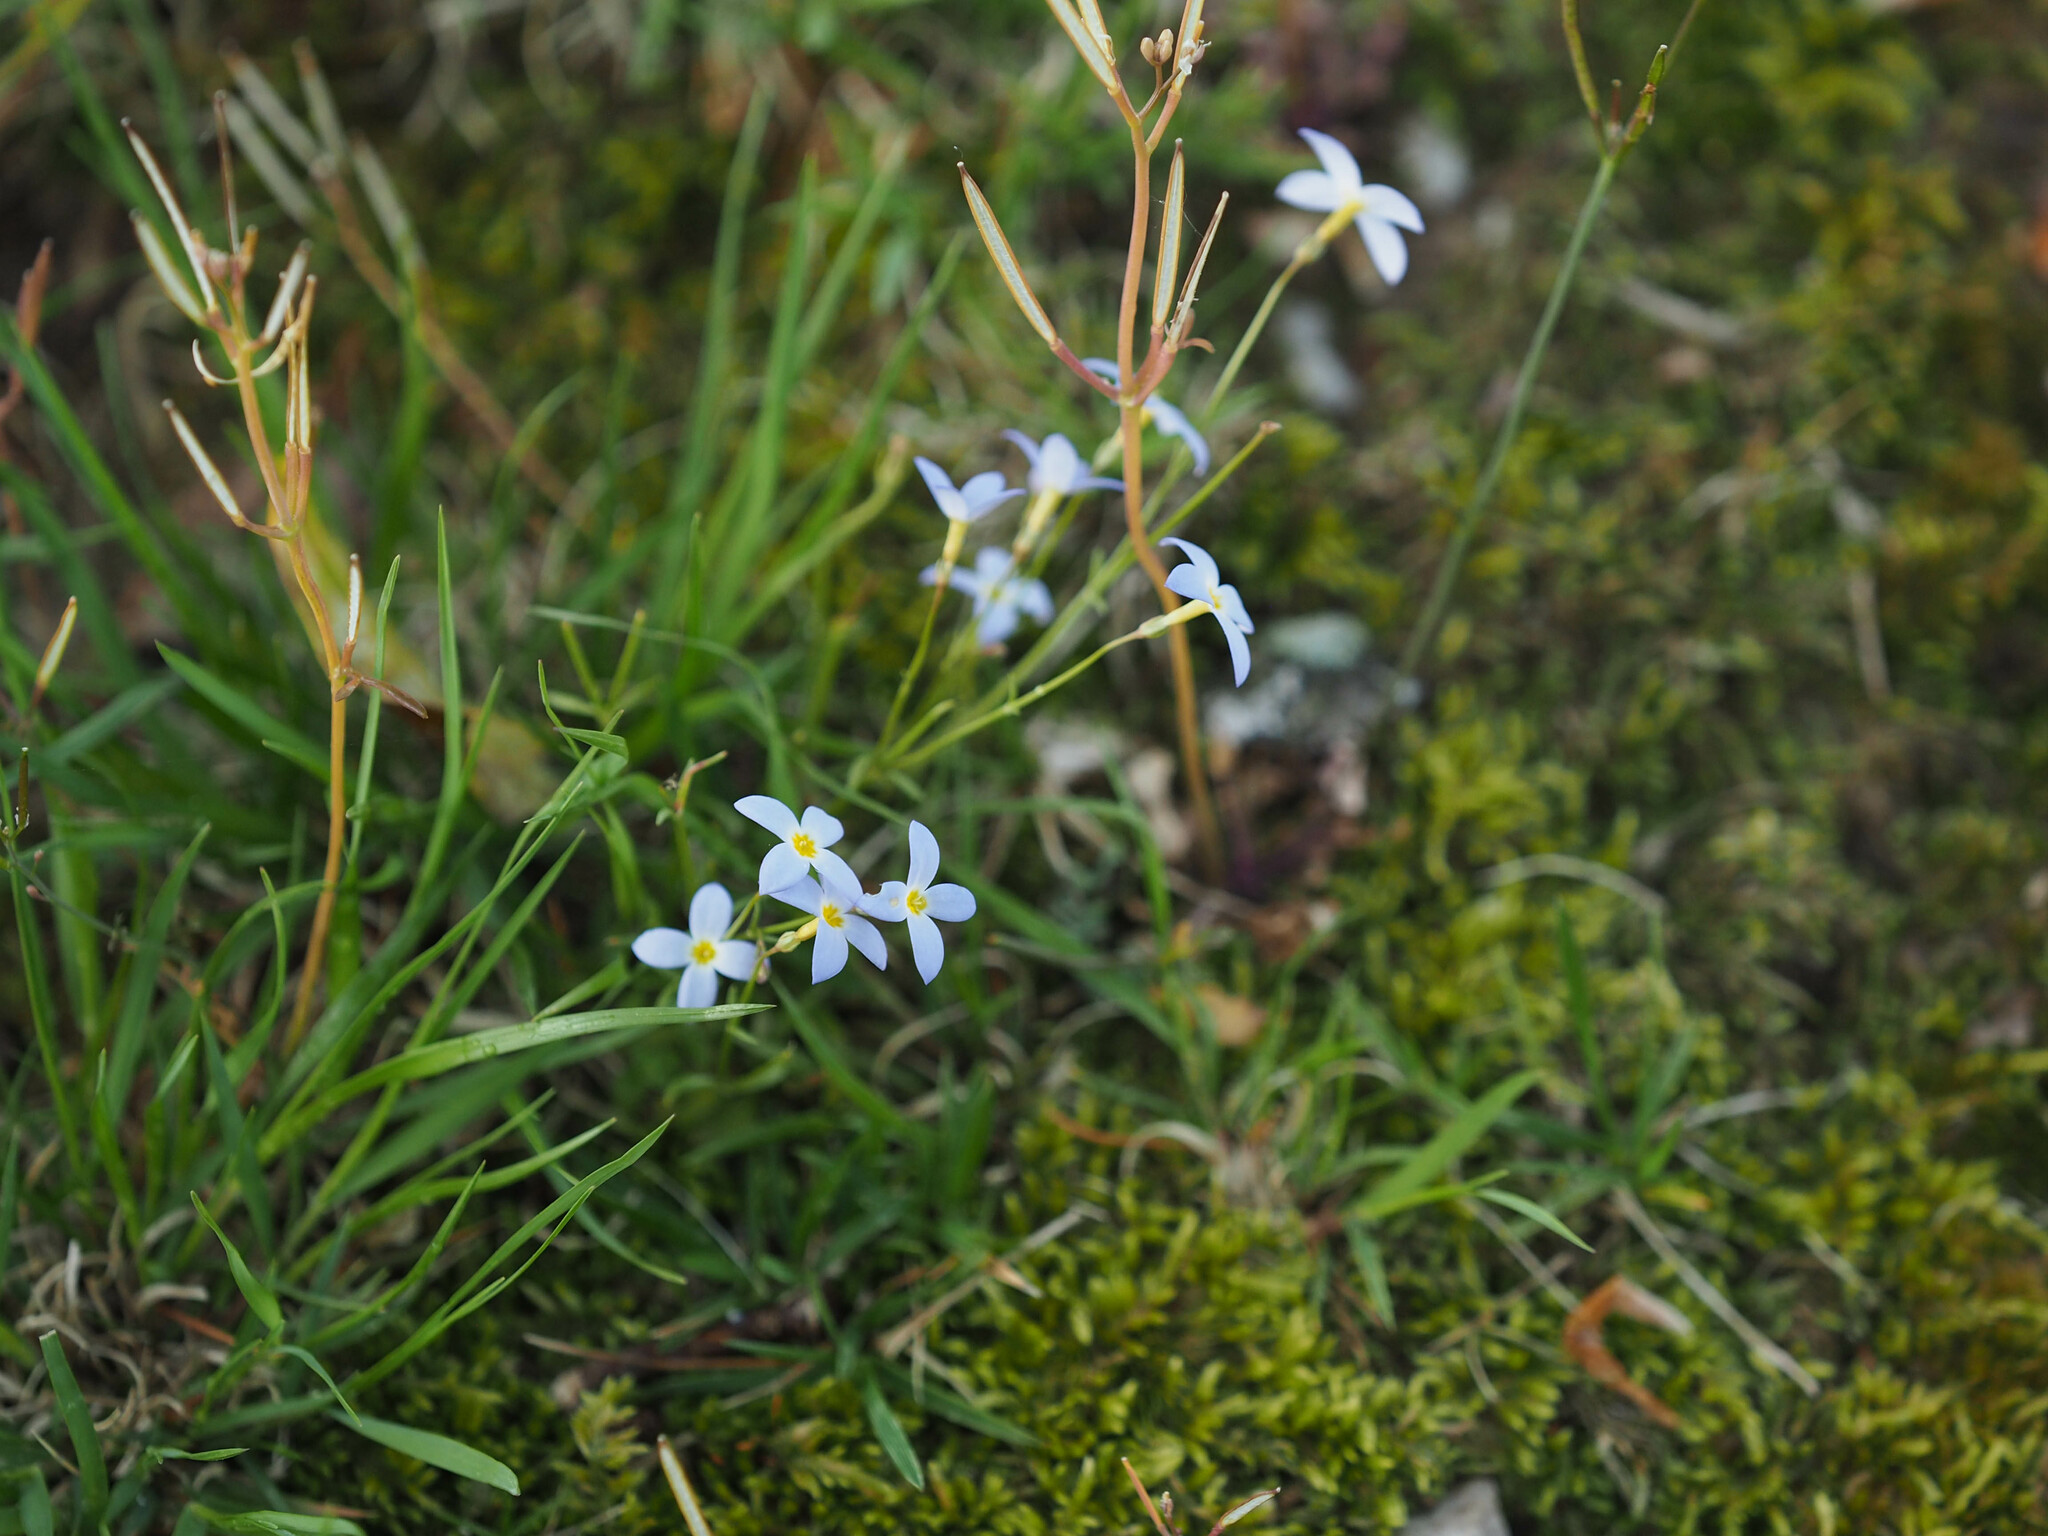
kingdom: Plantae
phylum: Tracheophyta
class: Magnoliopsida
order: Gentianales
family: Rubiaceae
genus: Houstonia
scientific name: Houstonia caerulea
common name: Bluets
